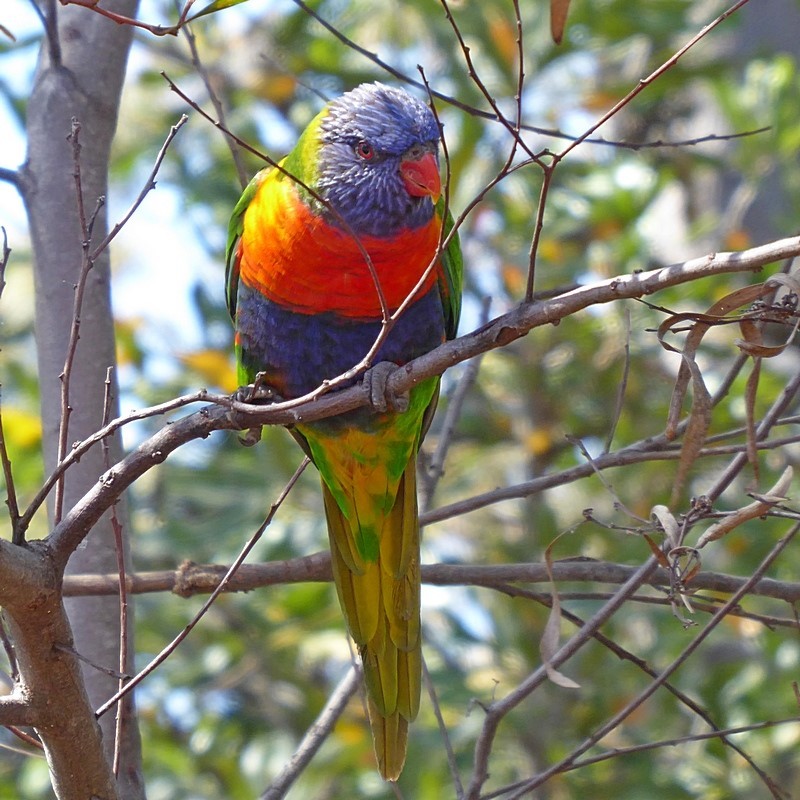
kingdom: Animalia
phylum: Chordata
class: Aves
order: Psittaciformes
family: Psittacidae
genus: Trichoglossus
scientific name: Trichoglossus haematodus
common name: Coconut lorikeet
